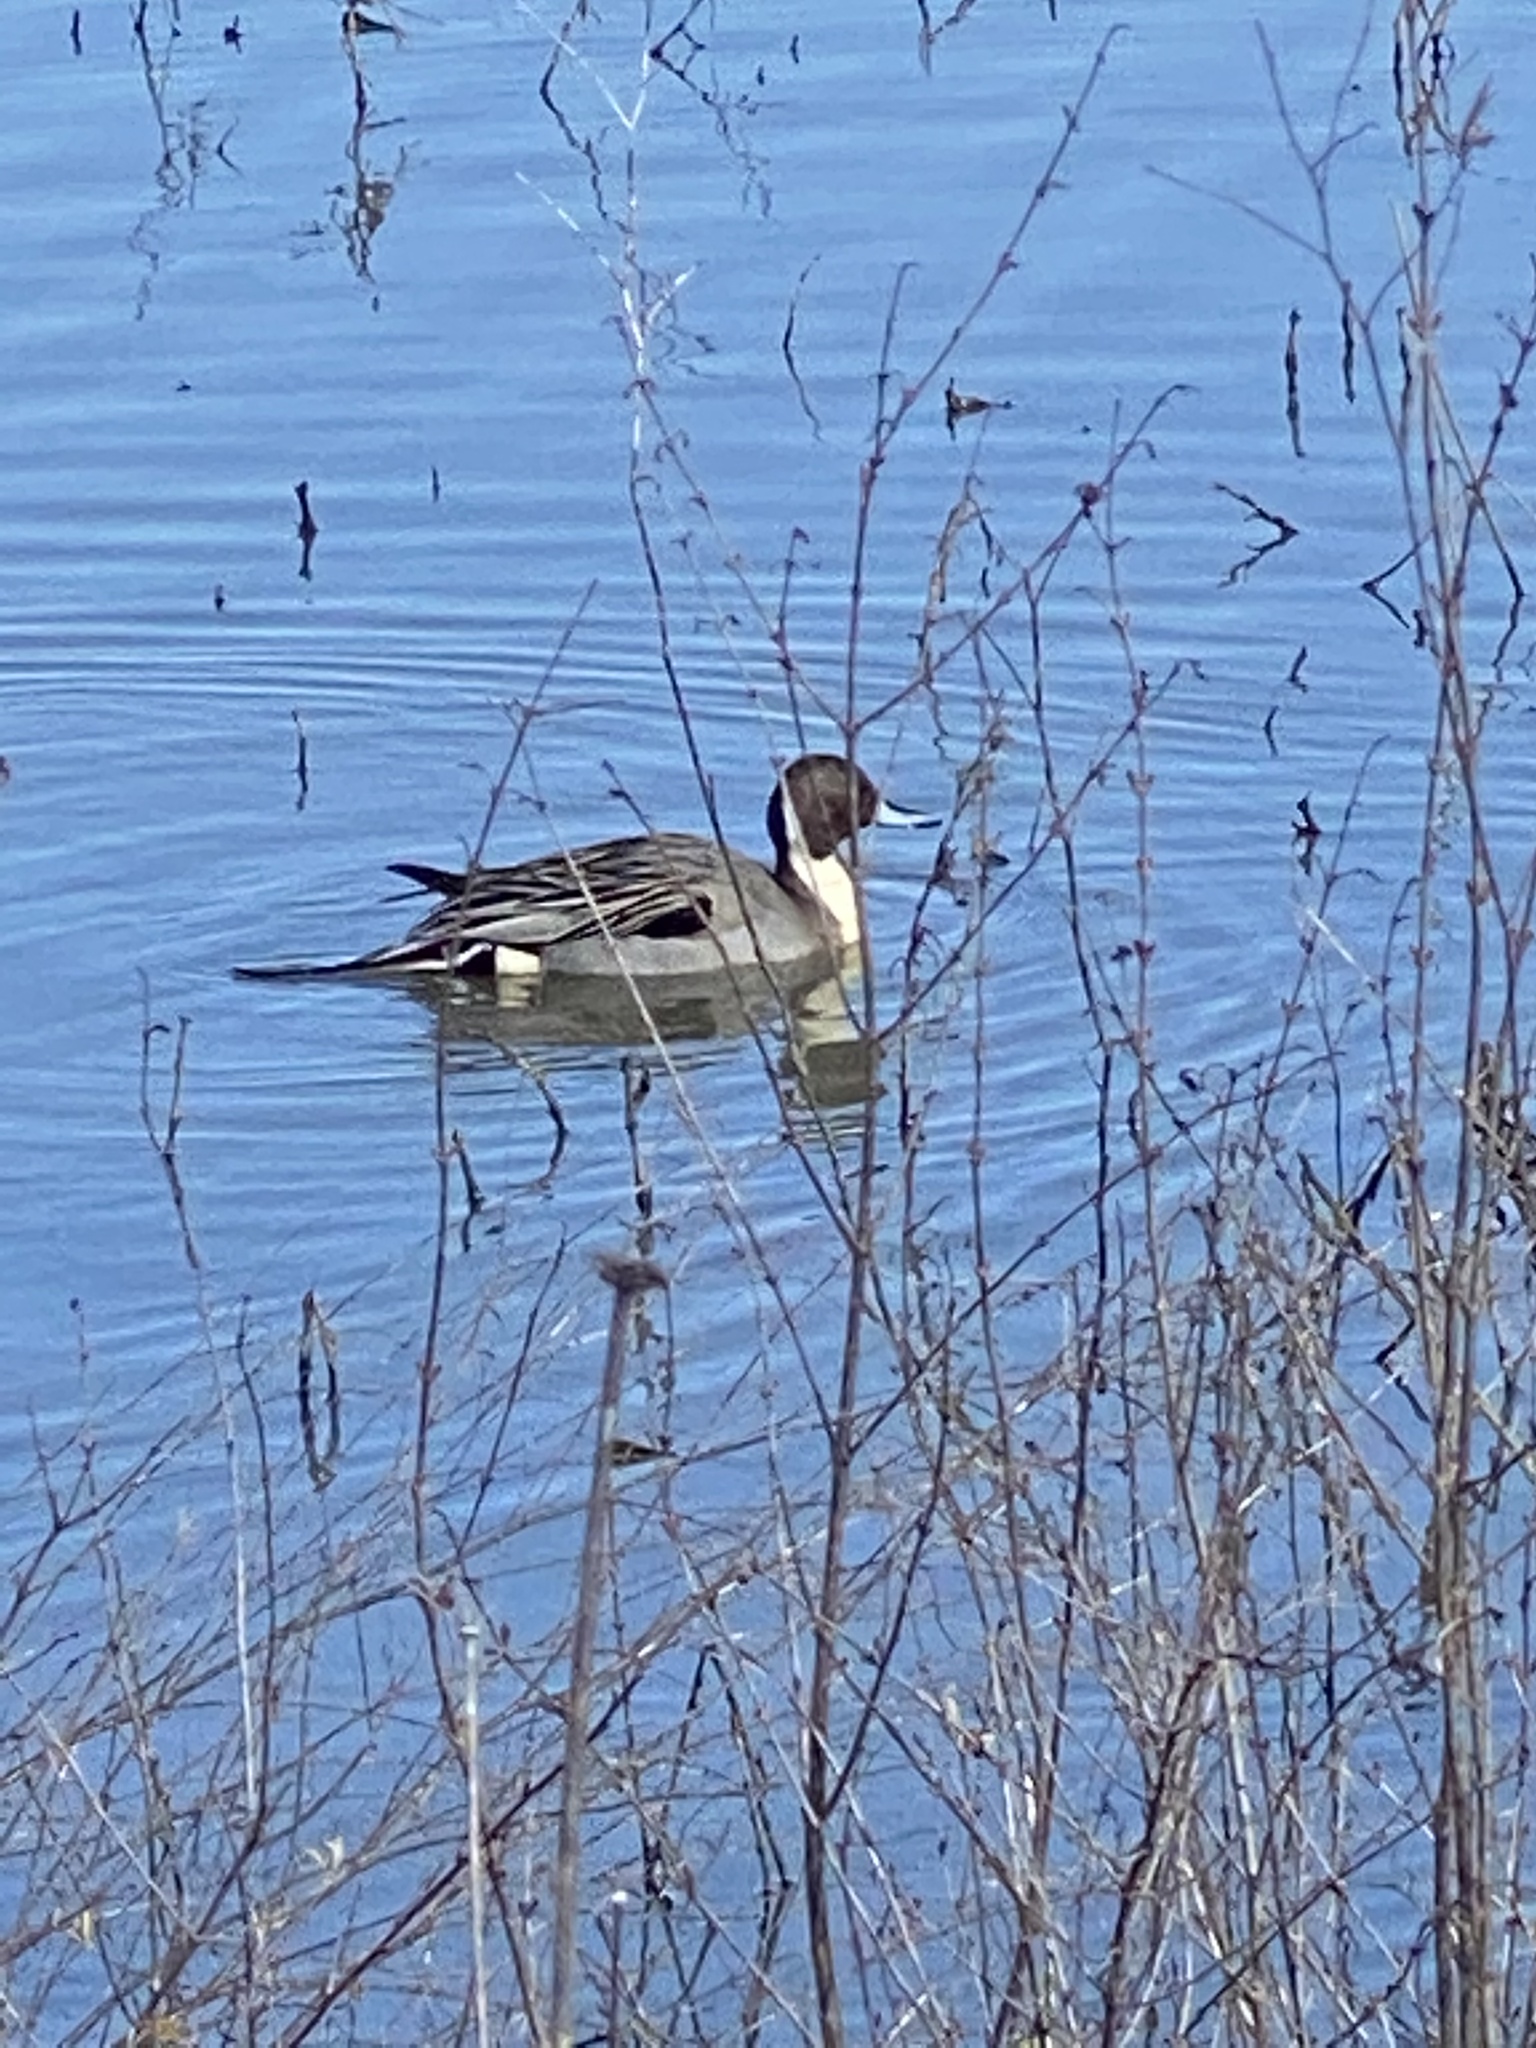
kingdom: Animalia
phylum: Chordata
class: Aves
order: Anseriformes
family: Anatidae
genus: Anas
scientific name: Anas acuta
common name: Northern pintail
